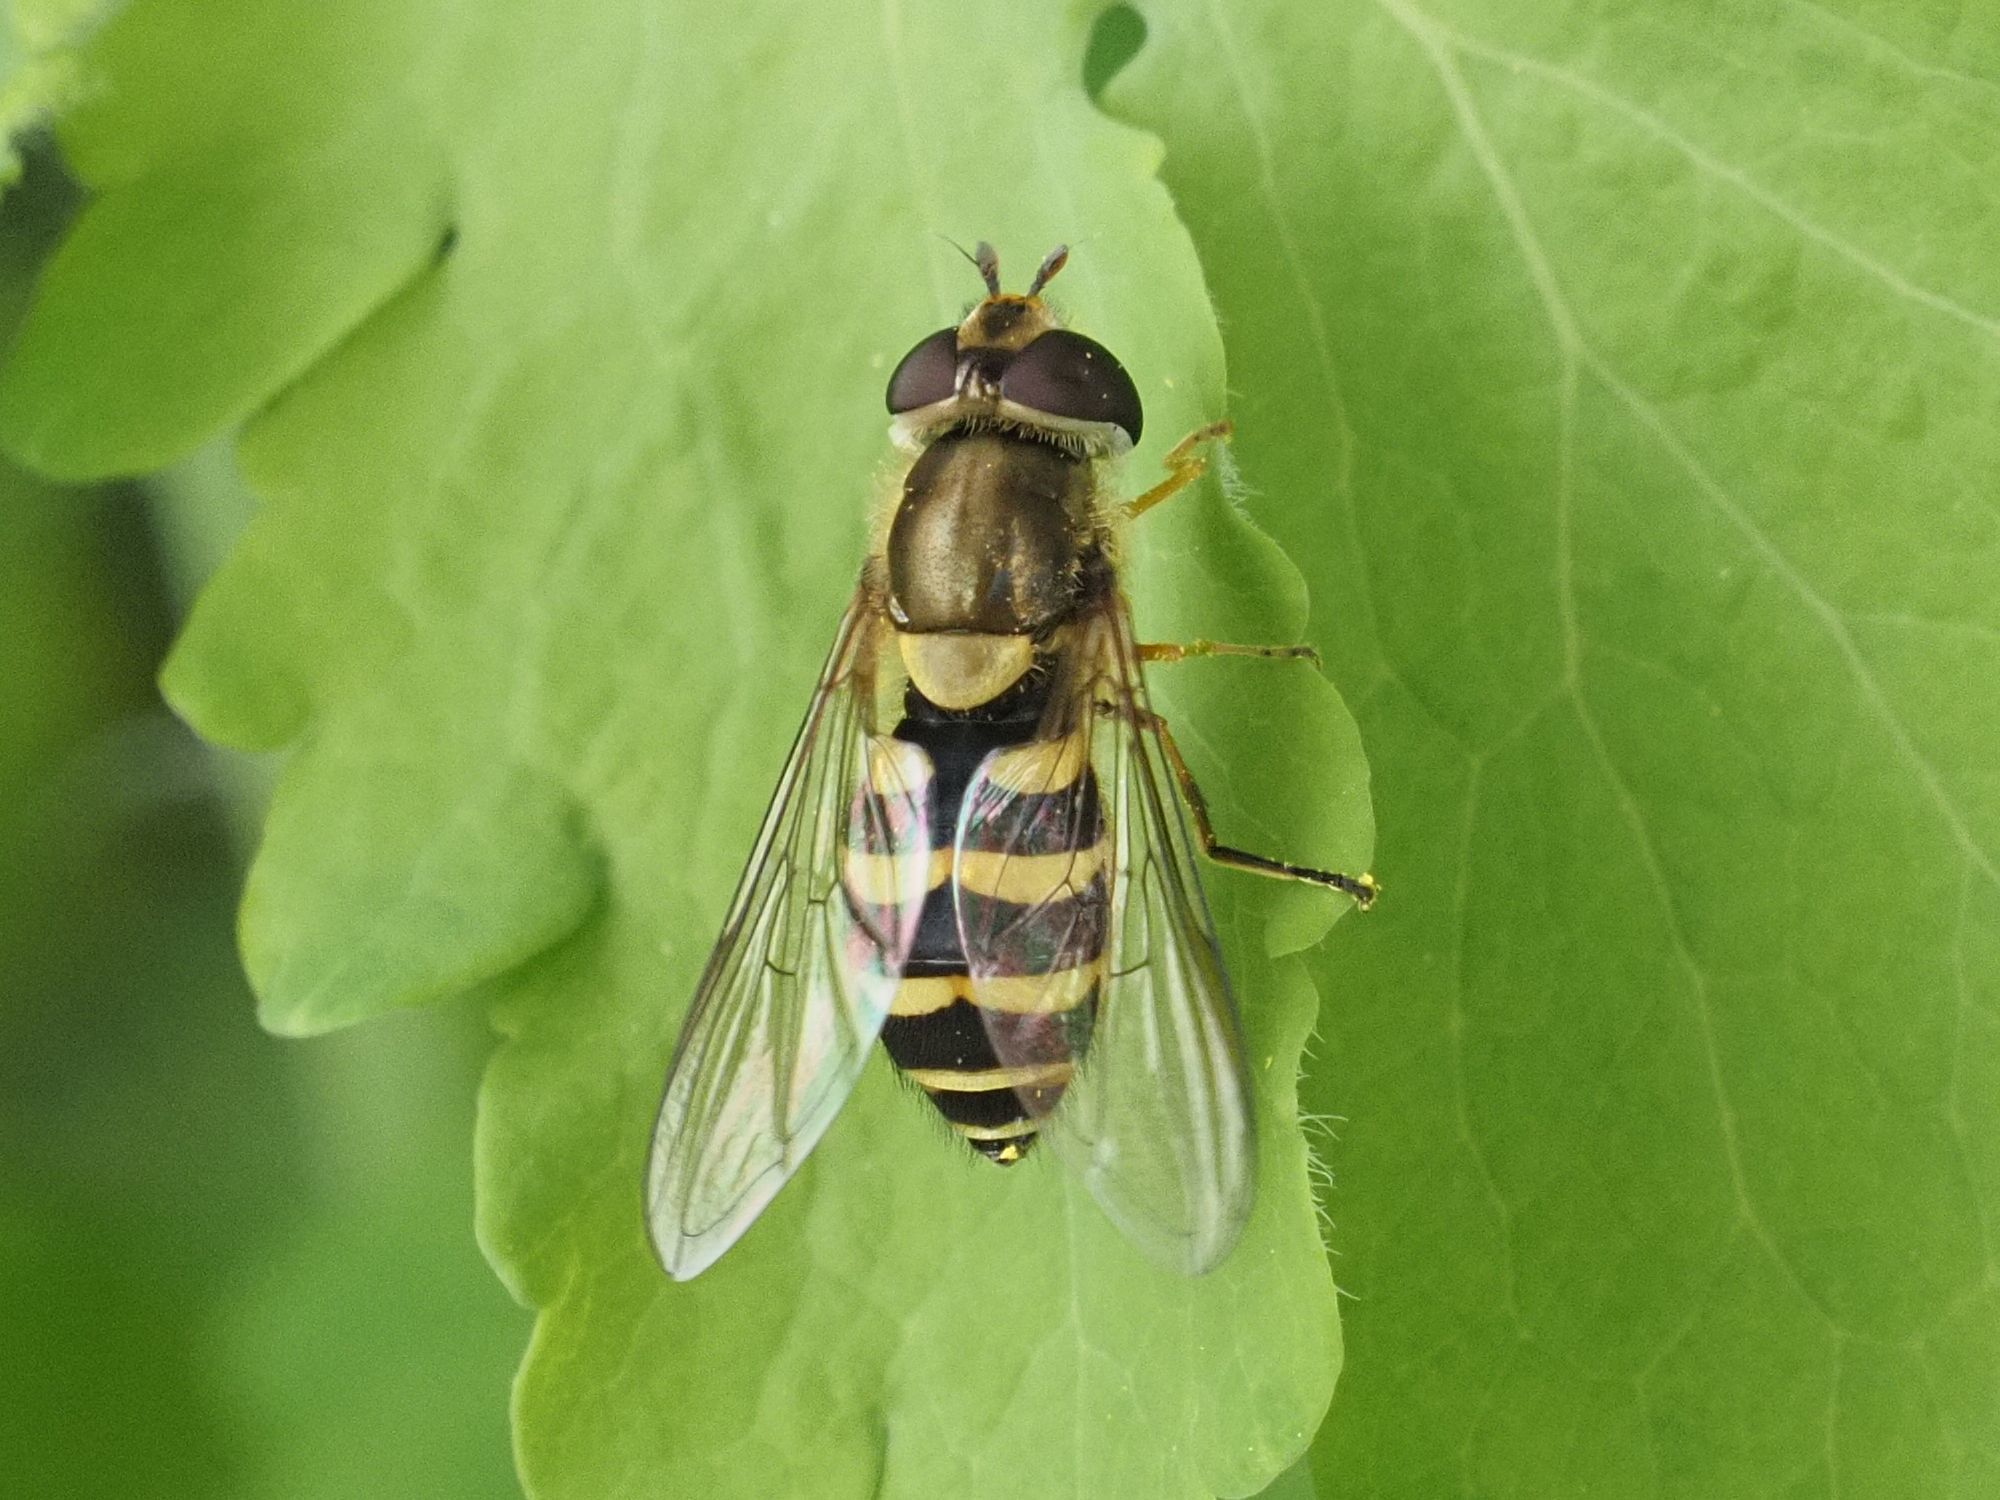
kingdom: Animalia
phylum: Arthropoda
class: Insecta
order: Diptera
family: Syrphidae
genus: Syrphus
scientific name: Syrphus
